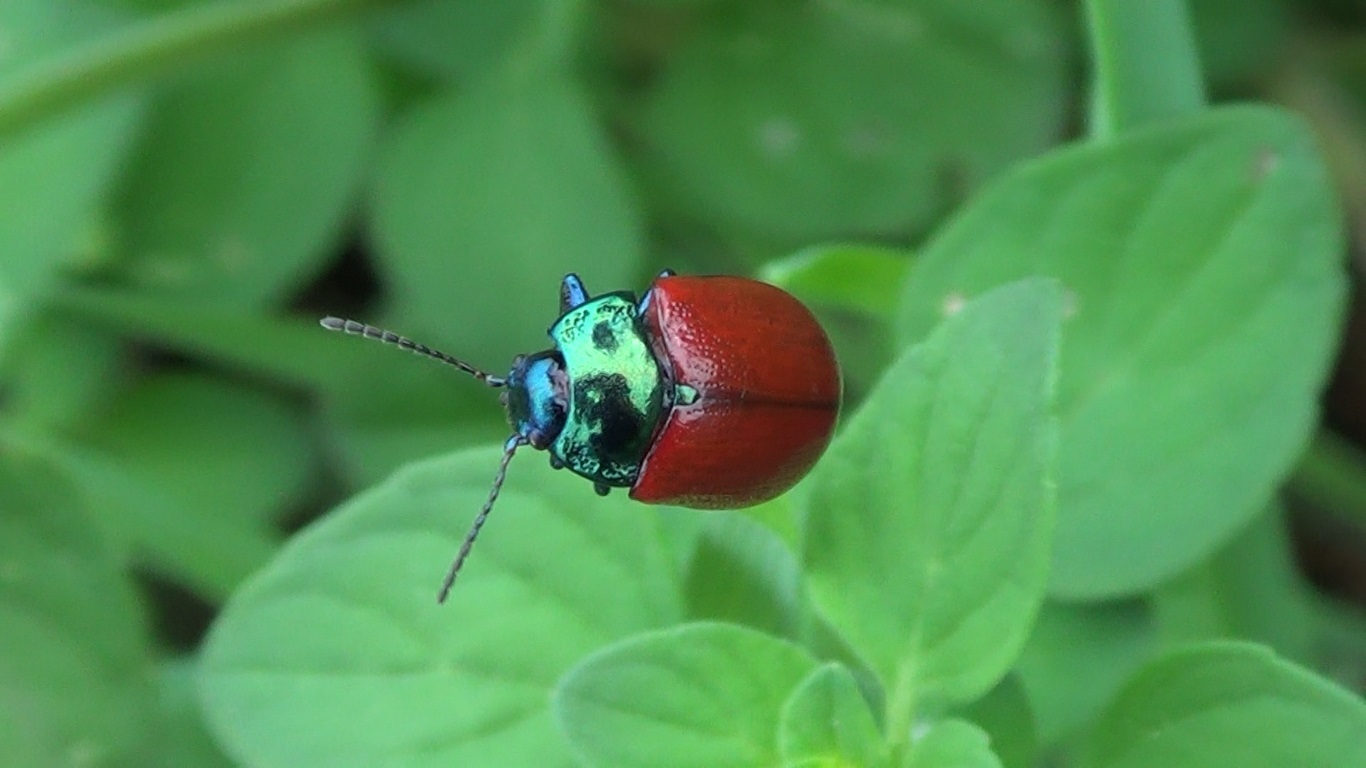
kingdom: Animalia
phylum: Arthropoda
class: Insecta
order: Coleoptera
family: Chrysomelidae
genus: Chrysolina
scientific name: Chrysolina grossa
